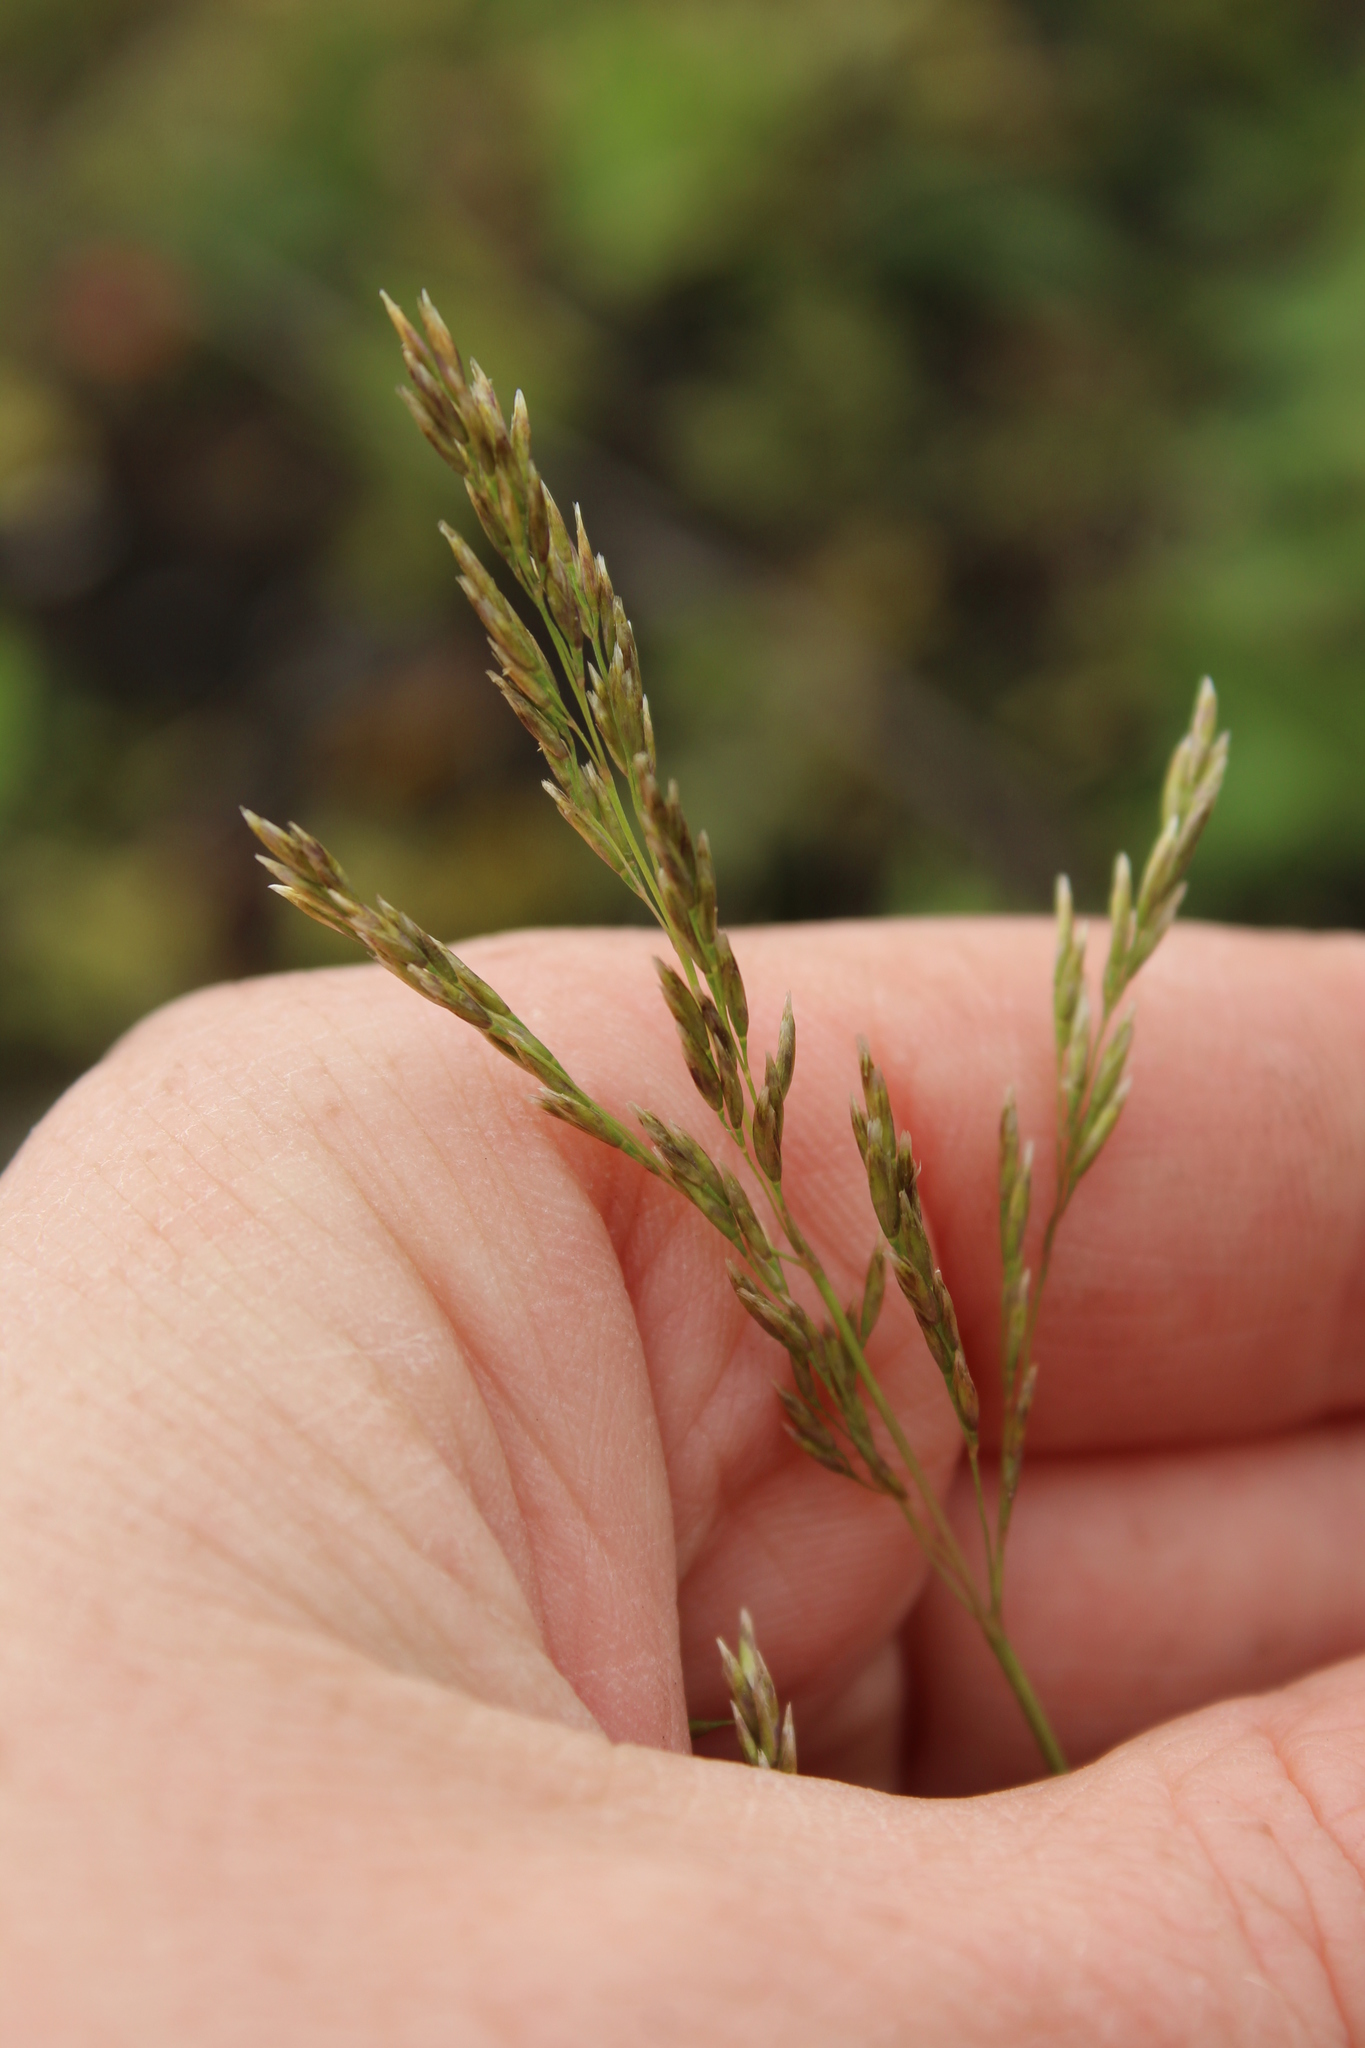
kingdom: Plantae
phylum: Tracheophyta
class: Liliopsida
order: Poales
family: Poaceae
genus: Deschampsia
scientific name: Deschampsia cespitosa
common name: Tufted hair-grass
